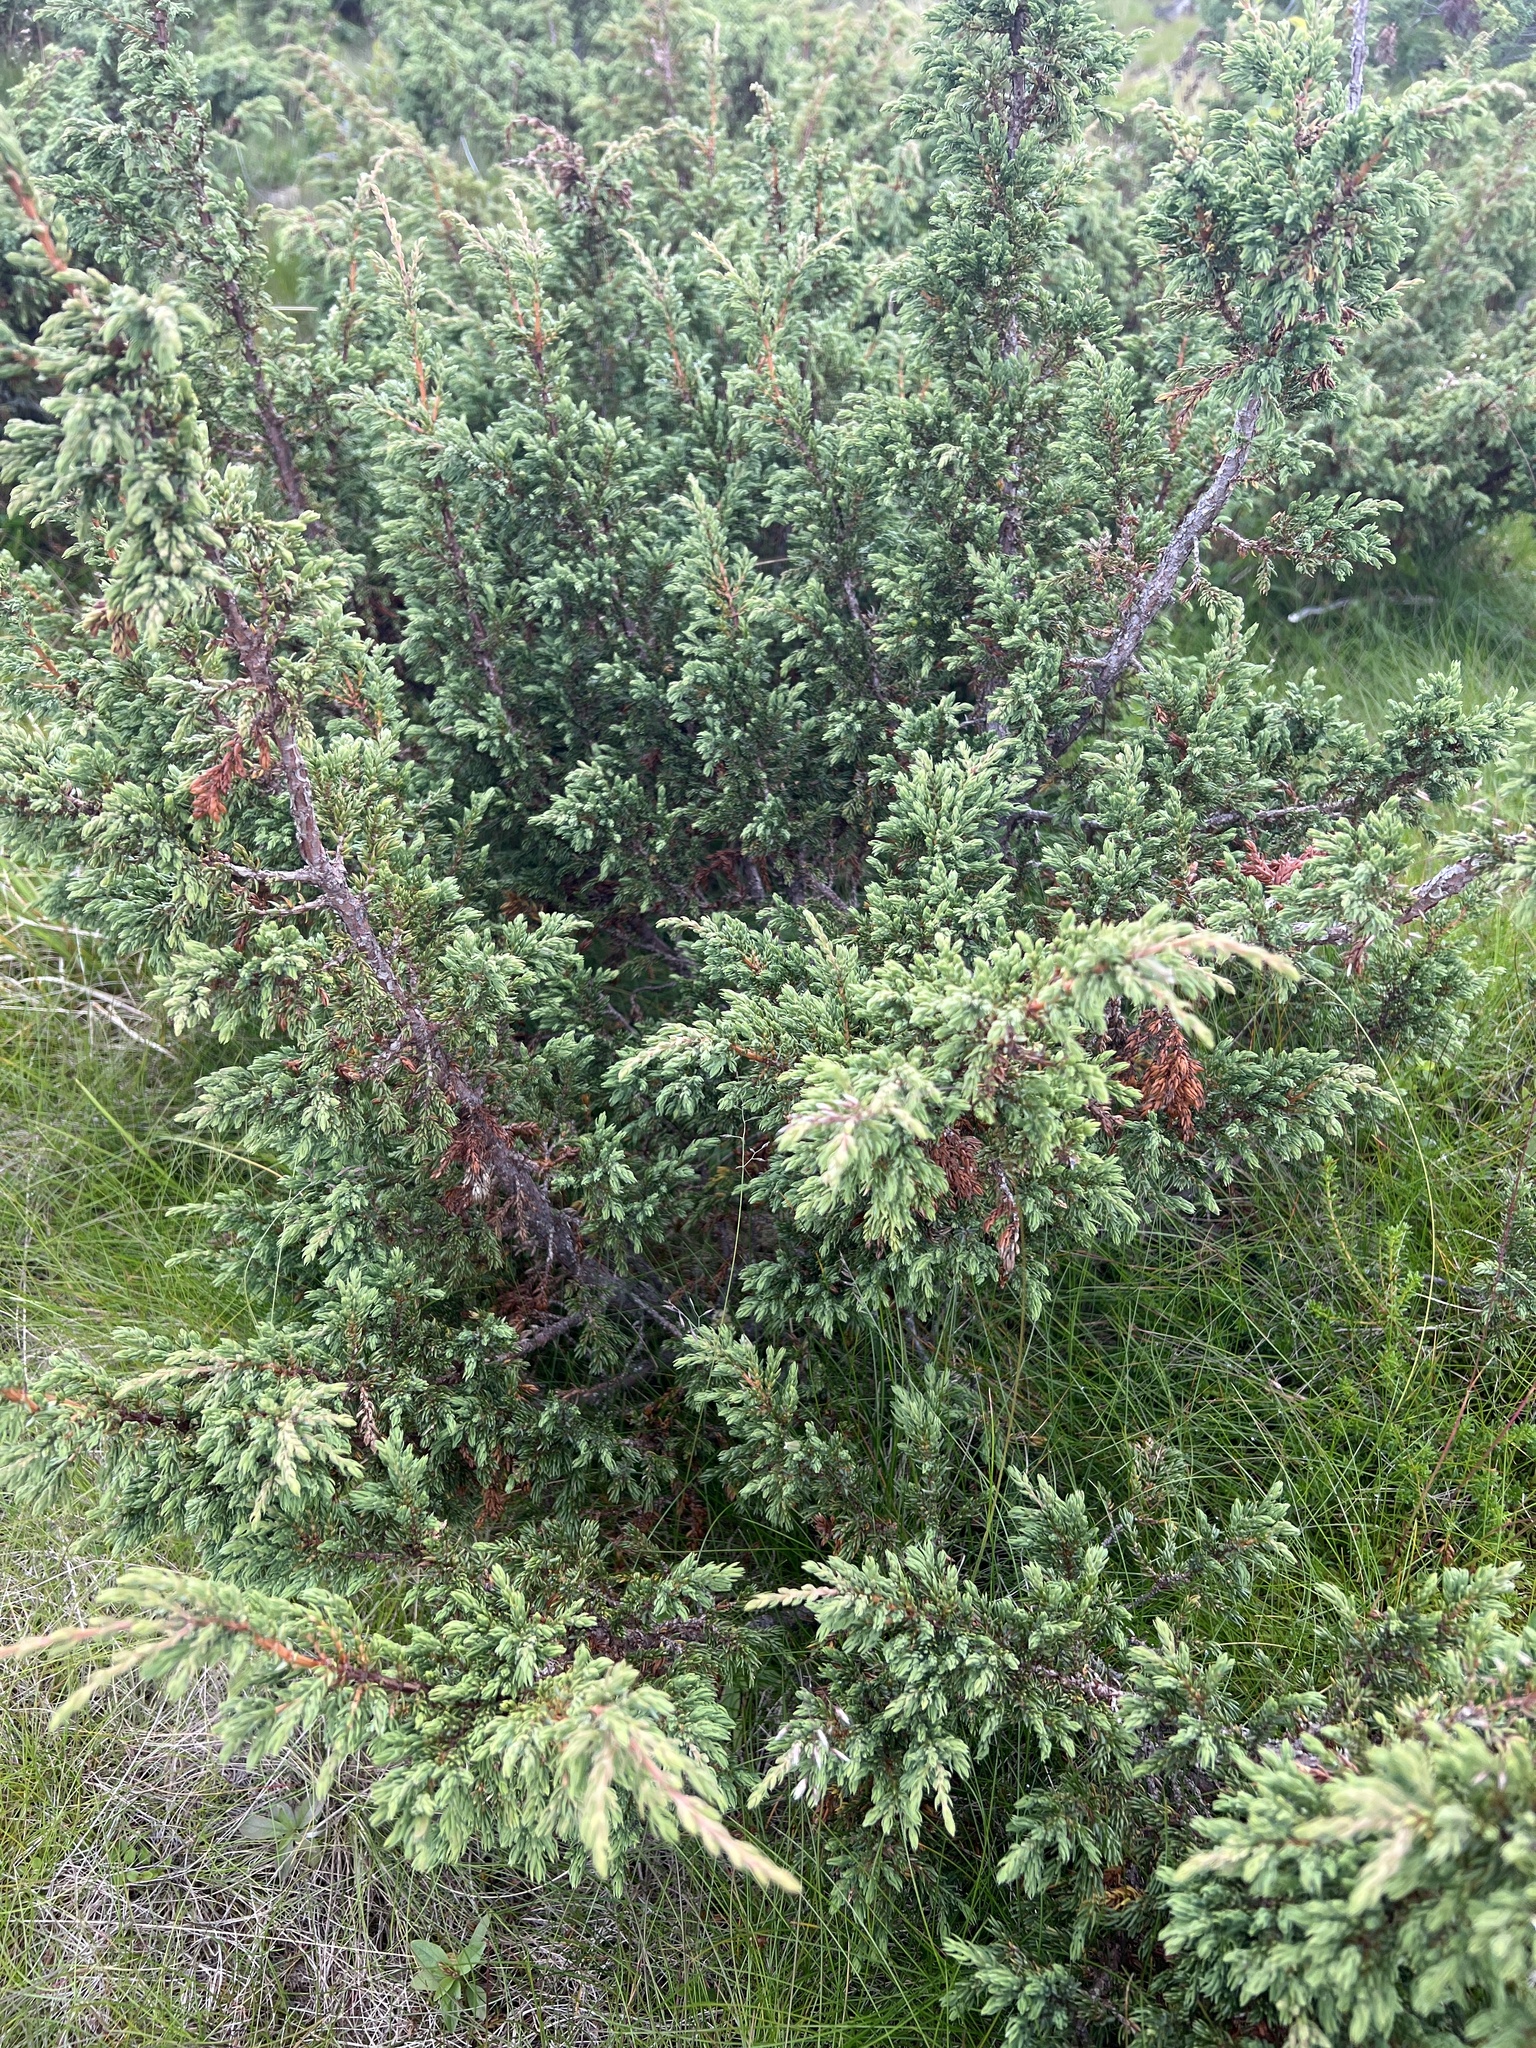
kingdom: Plantae
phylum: Tracheophyta
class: Pinopsida
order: Pinales
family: Cupressaceae
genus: Juniperus
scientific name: Juniperus communis
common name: Common juniper
